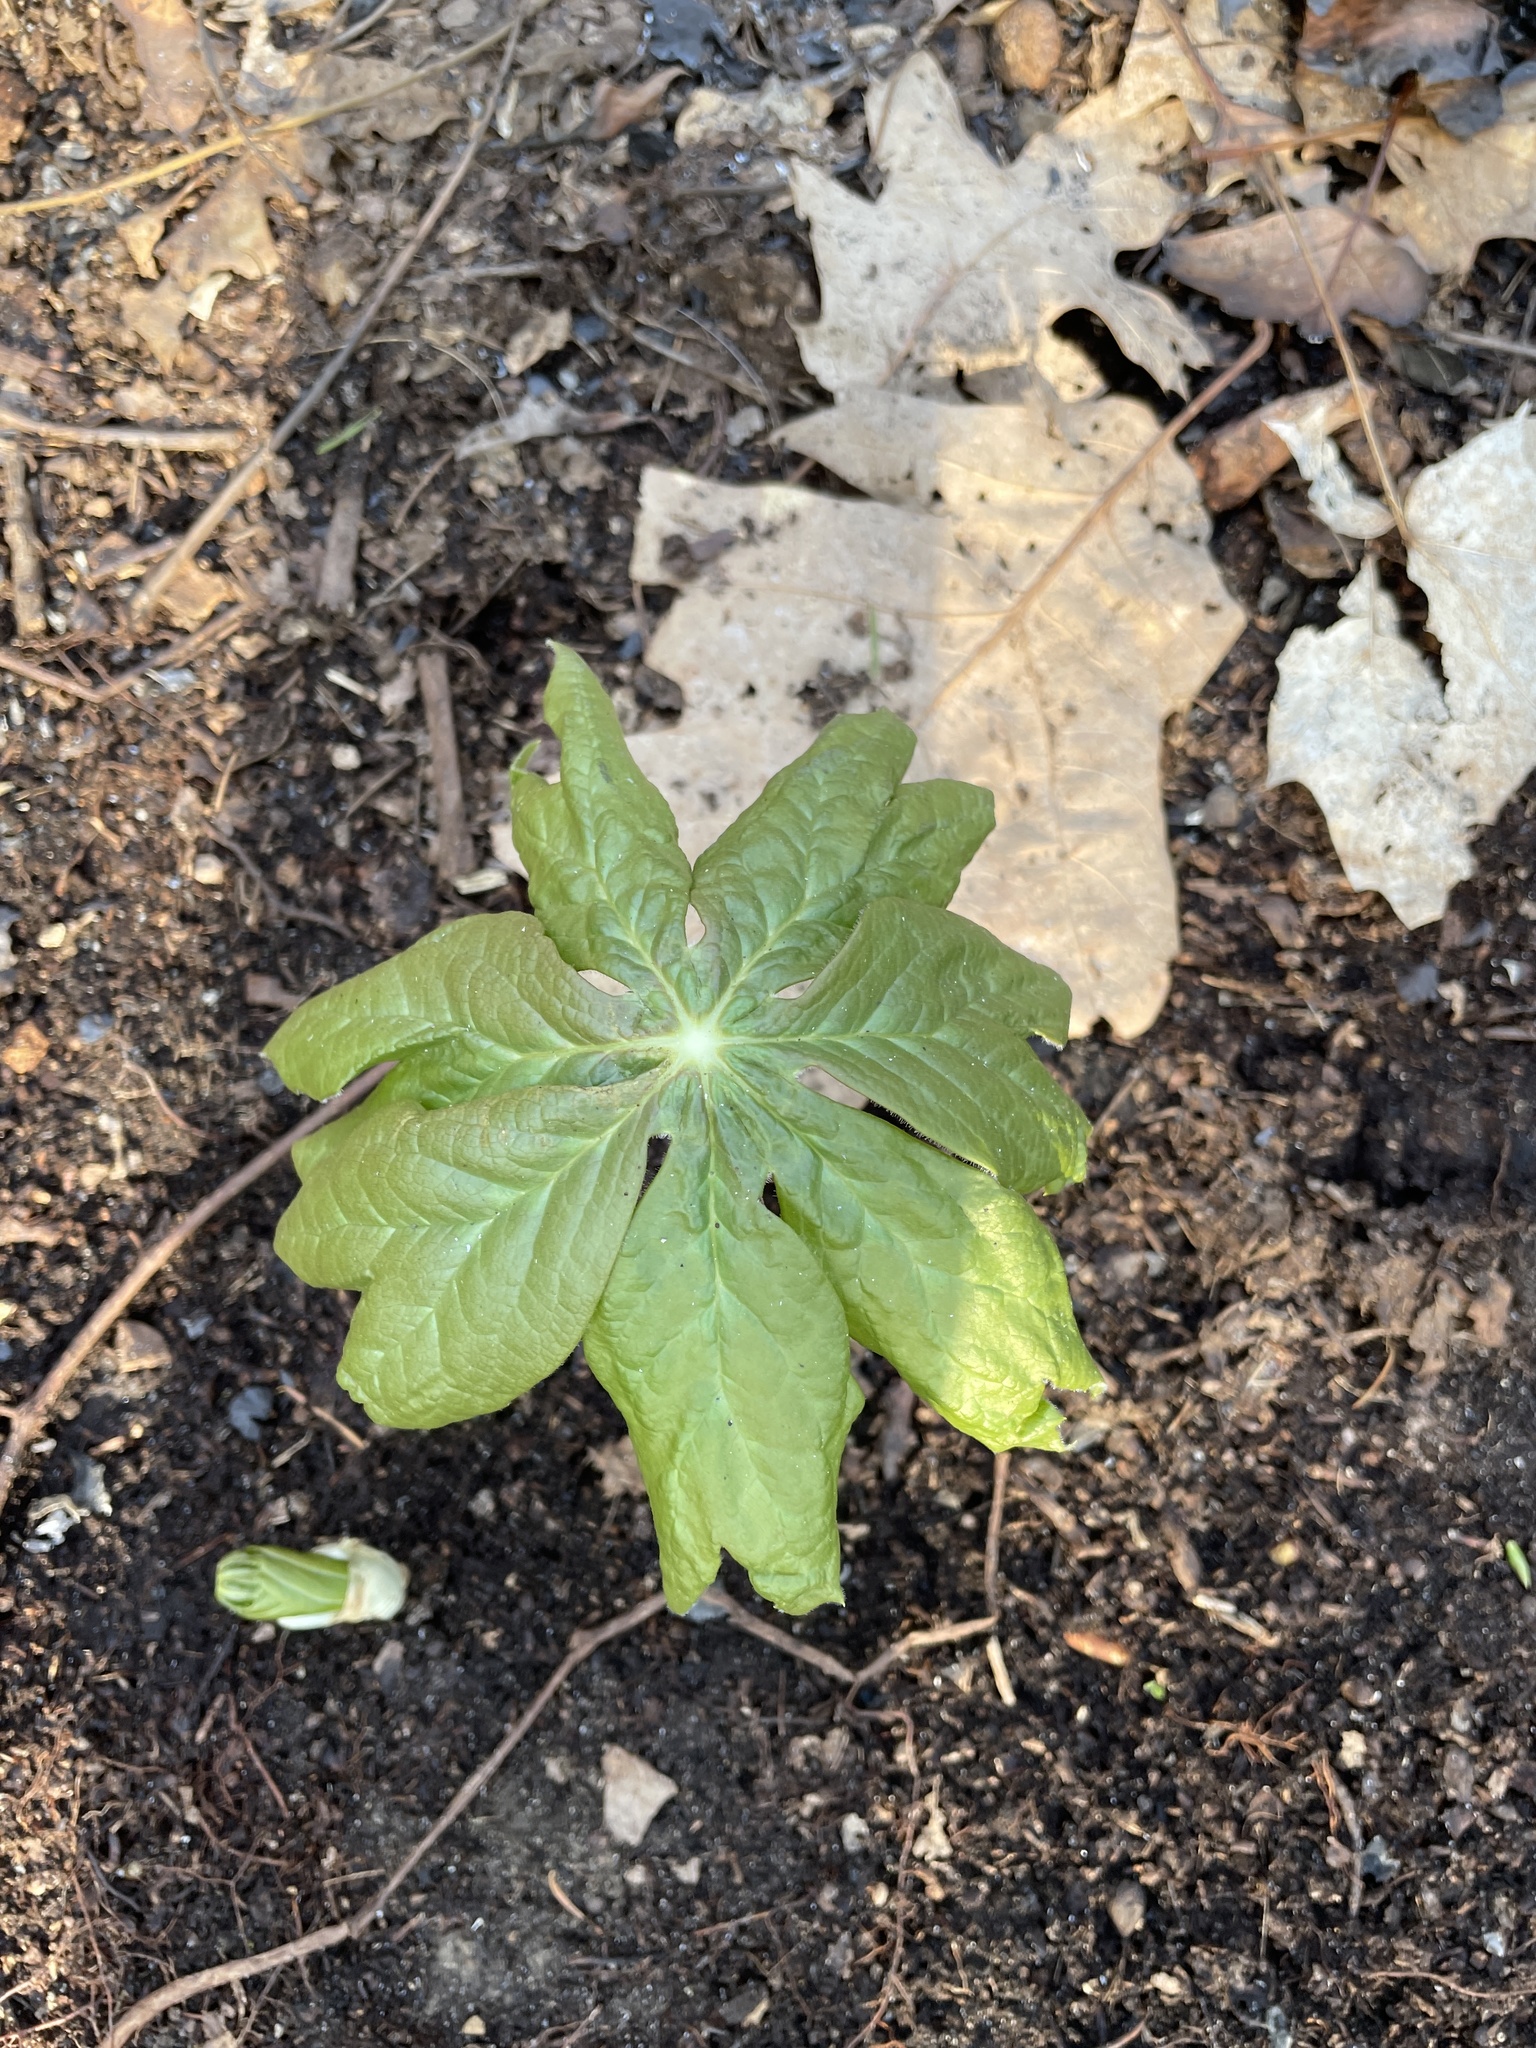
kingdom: Plantae
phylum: Tracheophyta
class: Magnoliopsida
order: Ranunculales
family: Berberidaceae
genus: Podophyllum
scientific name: Podophyllum peltatum
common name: Wild mandrake
